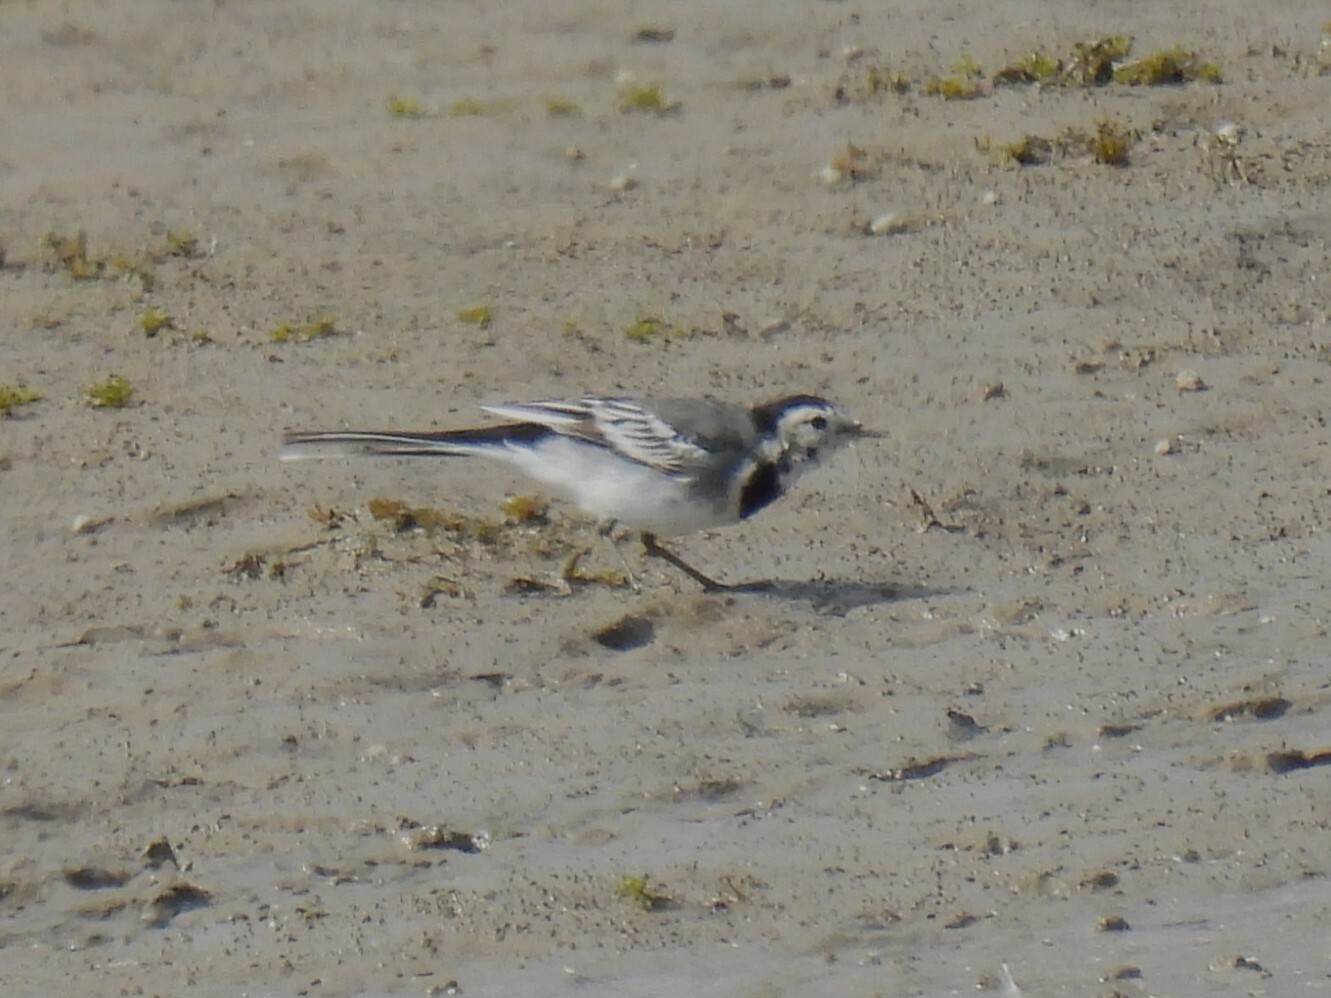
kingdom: Animalia
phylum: Chordata
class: Aves
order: Passeriformes
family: Motacillidae
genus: Motacilla
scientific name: Motacilla alba
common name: White wagtail
